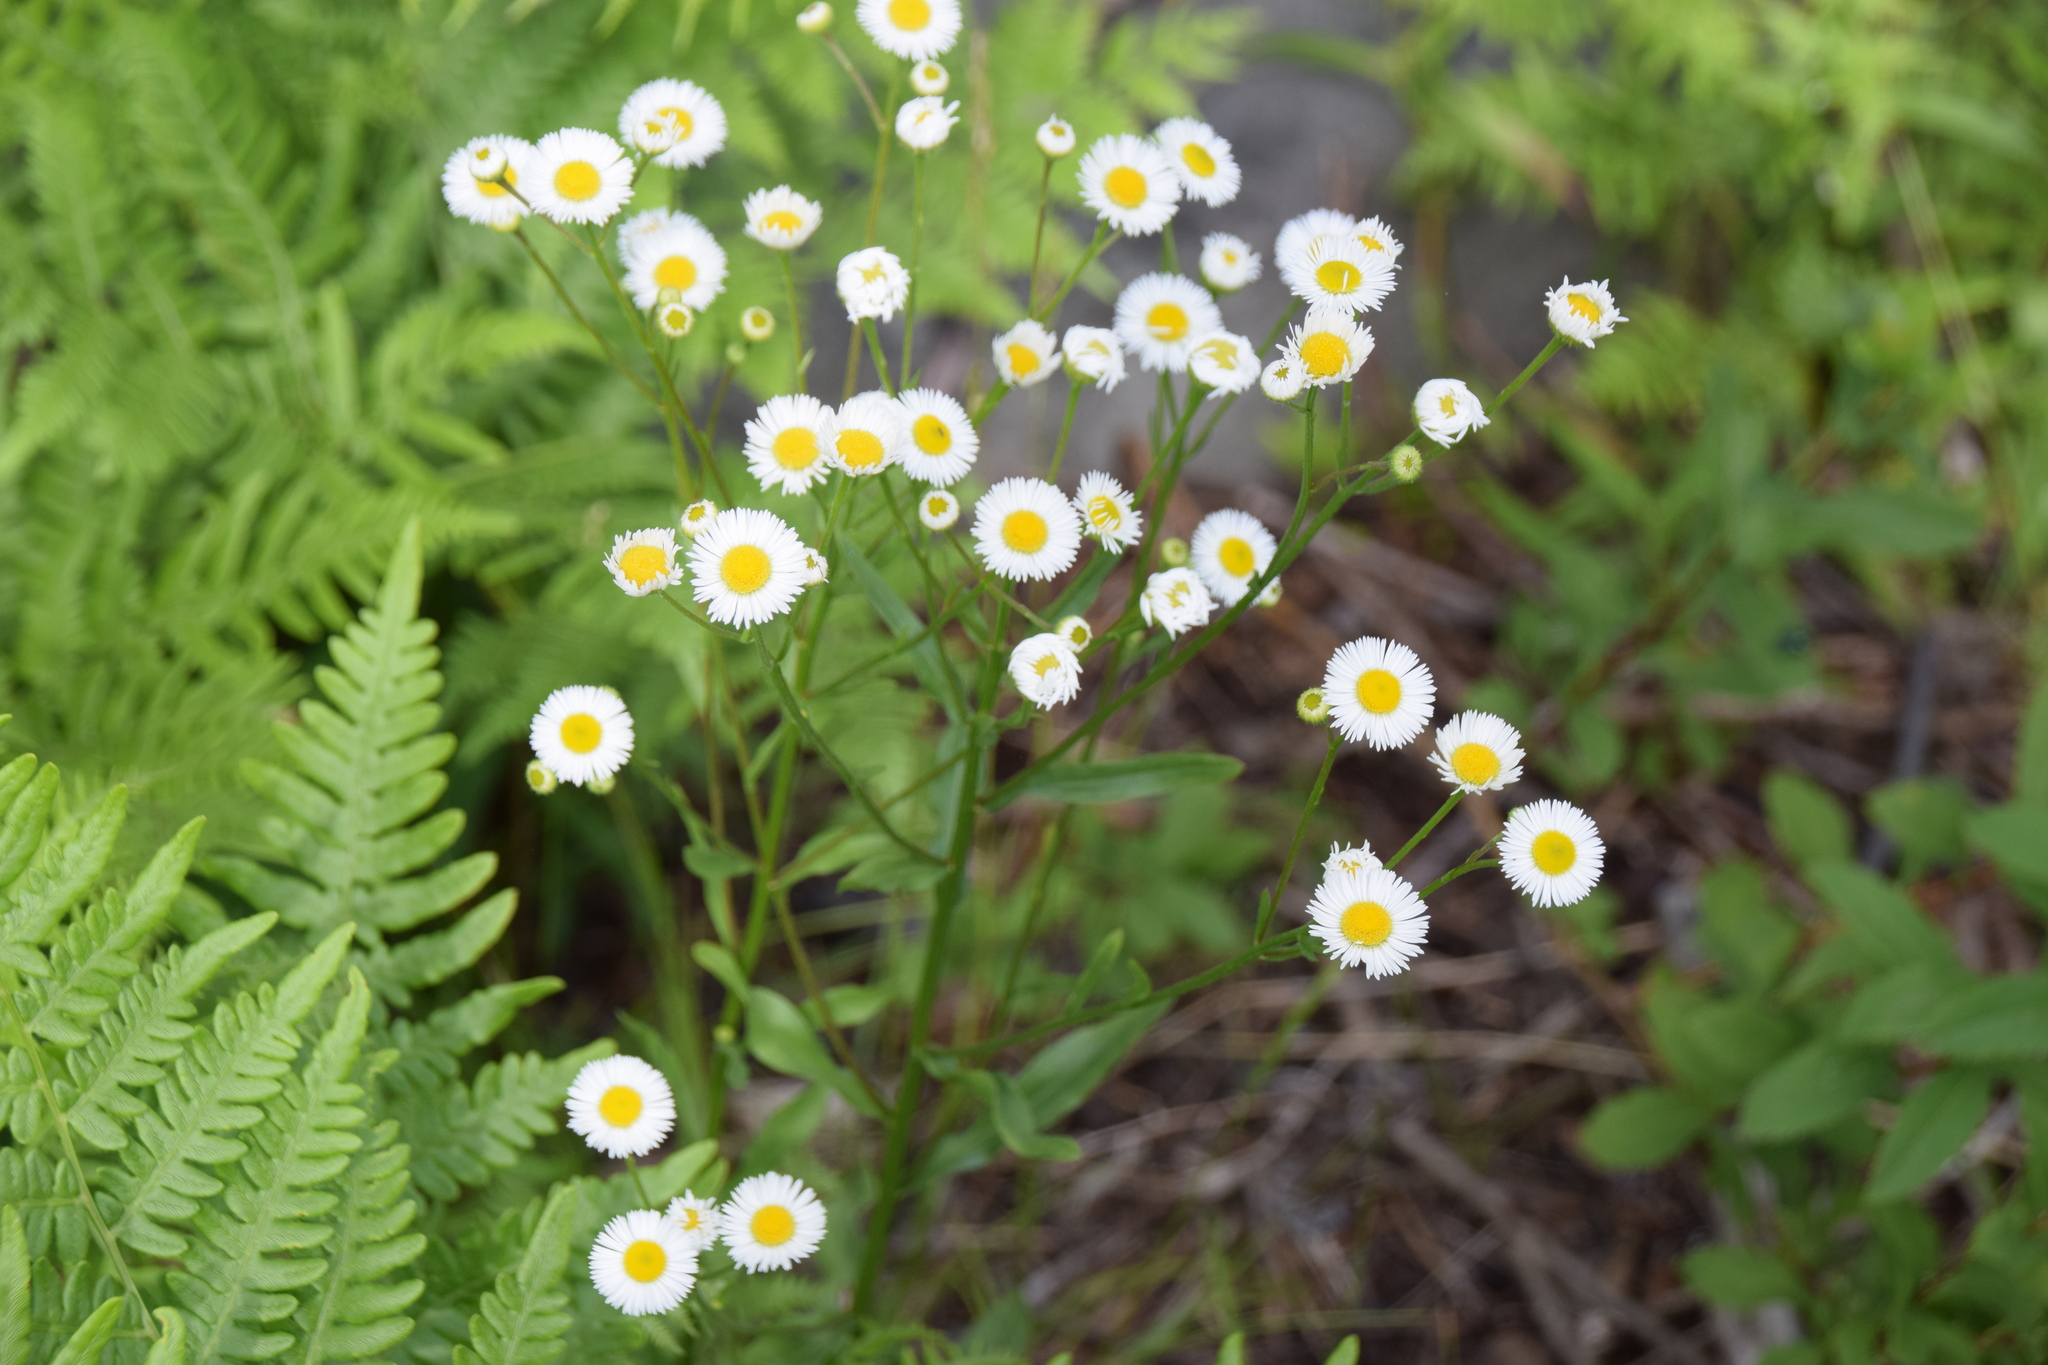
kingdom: Plantae
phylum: Tracheophyta
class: Magnoliopsida
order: Asterales
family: Asteraceae
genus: Erigeron
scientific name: Erigeron strigosus
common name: Common eastern fleabane
